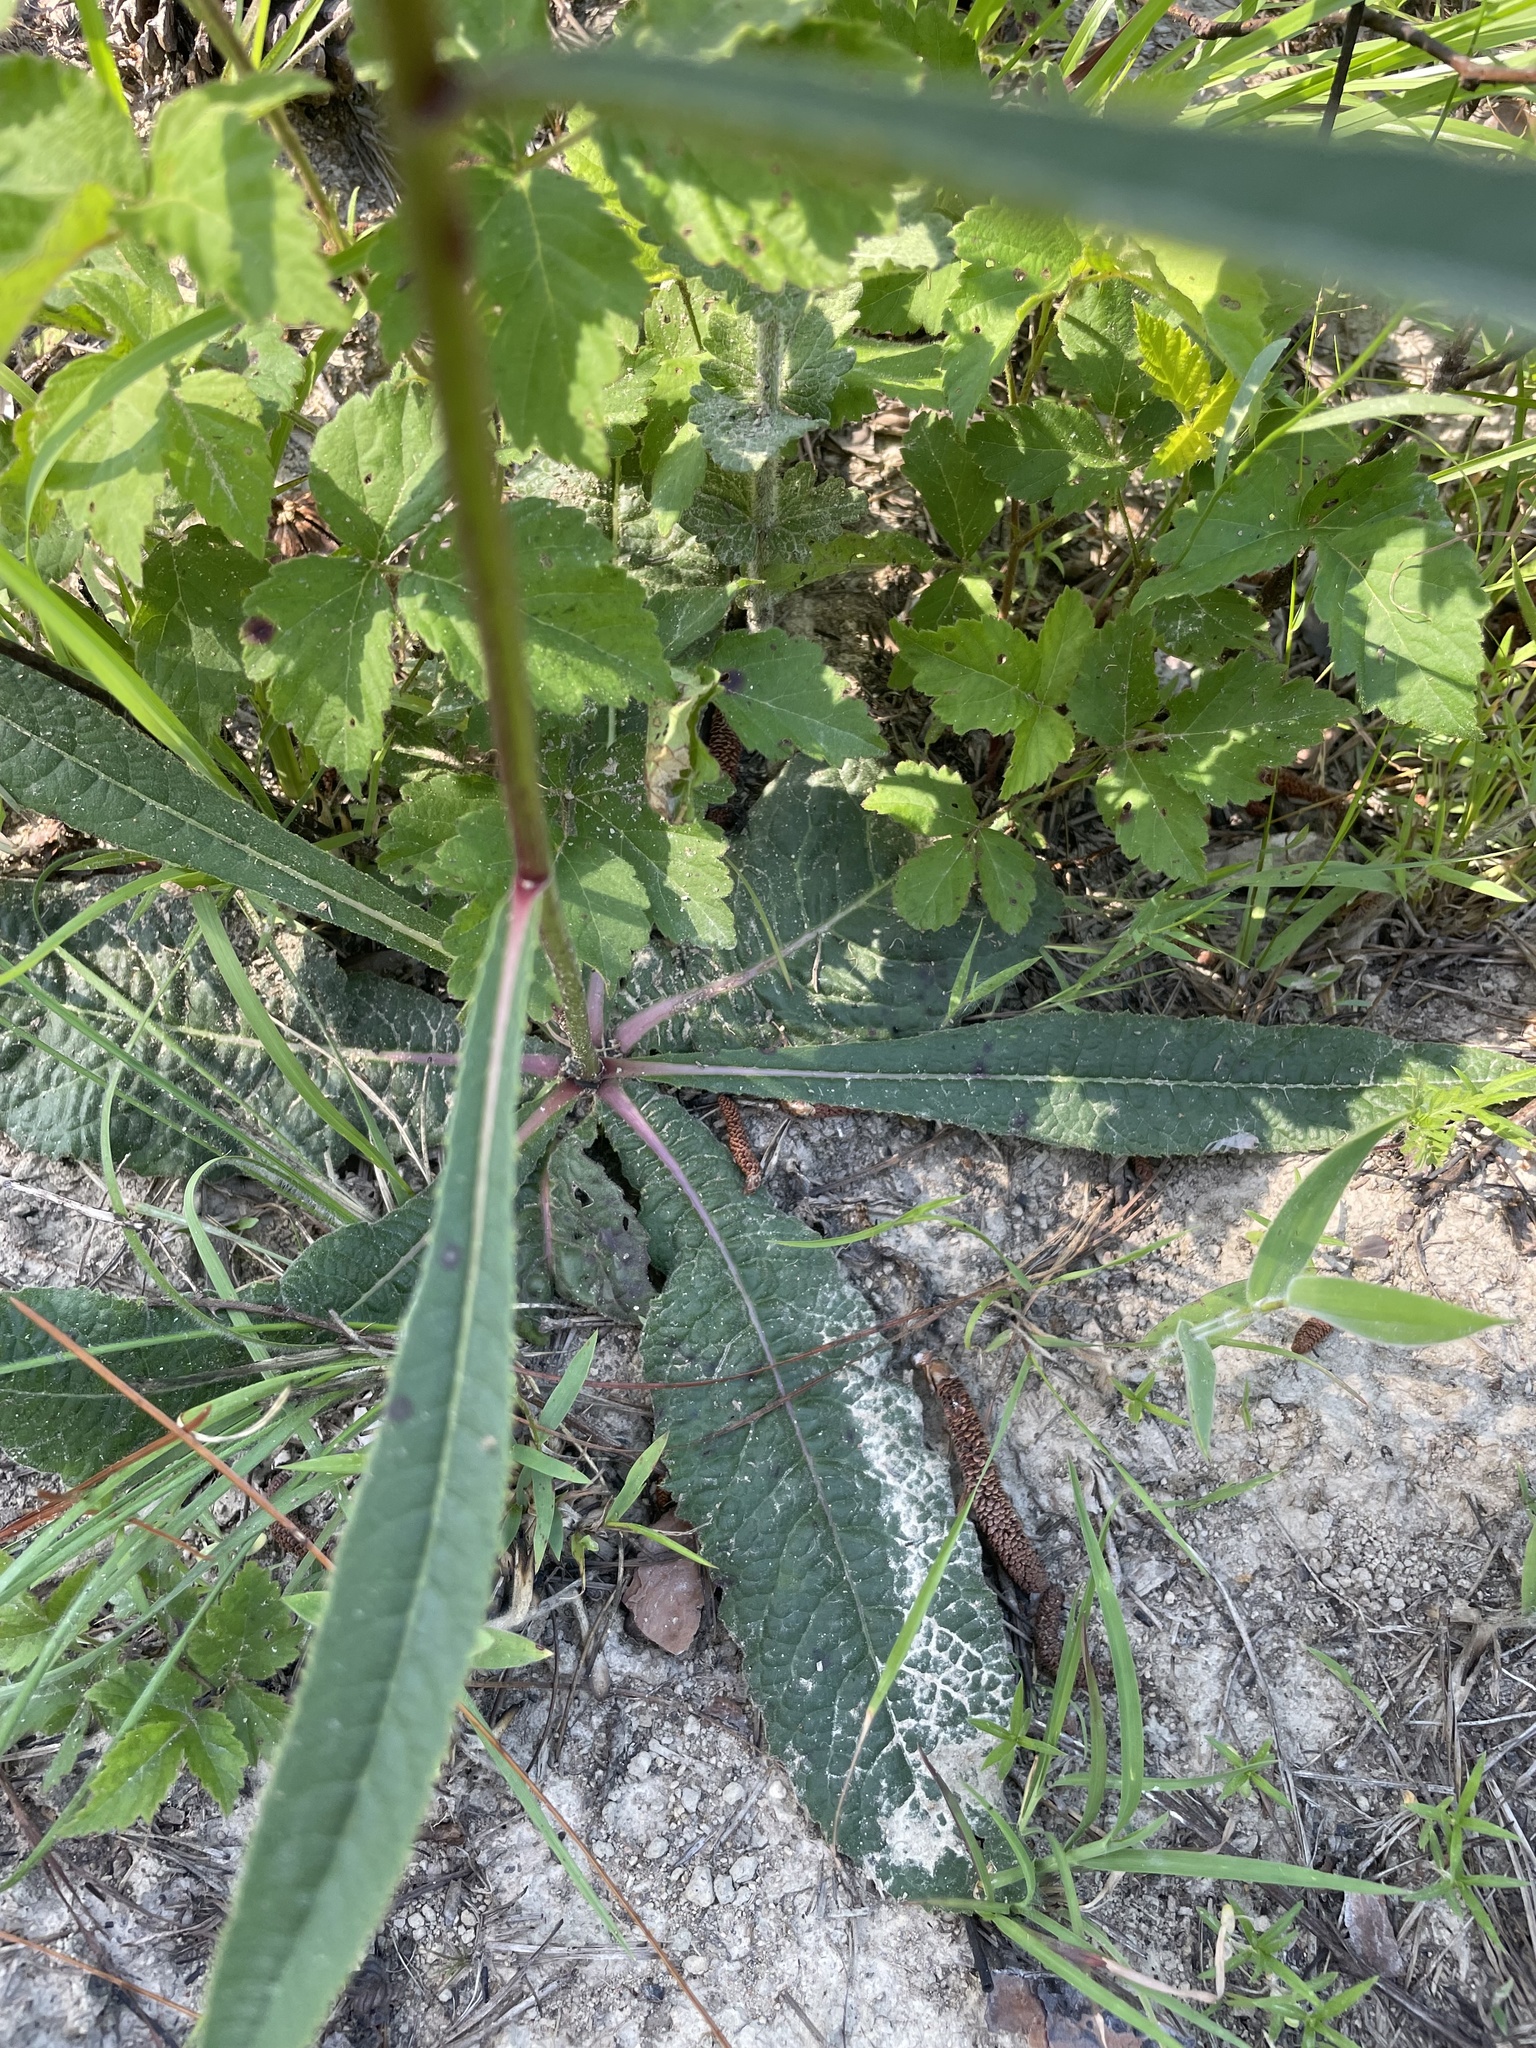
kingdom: Plantae
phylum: Tracheophyta
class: Magnoliopsida
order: Asterales
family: Asteraceae
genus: Vernonia
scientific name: Vernonia acaulis
